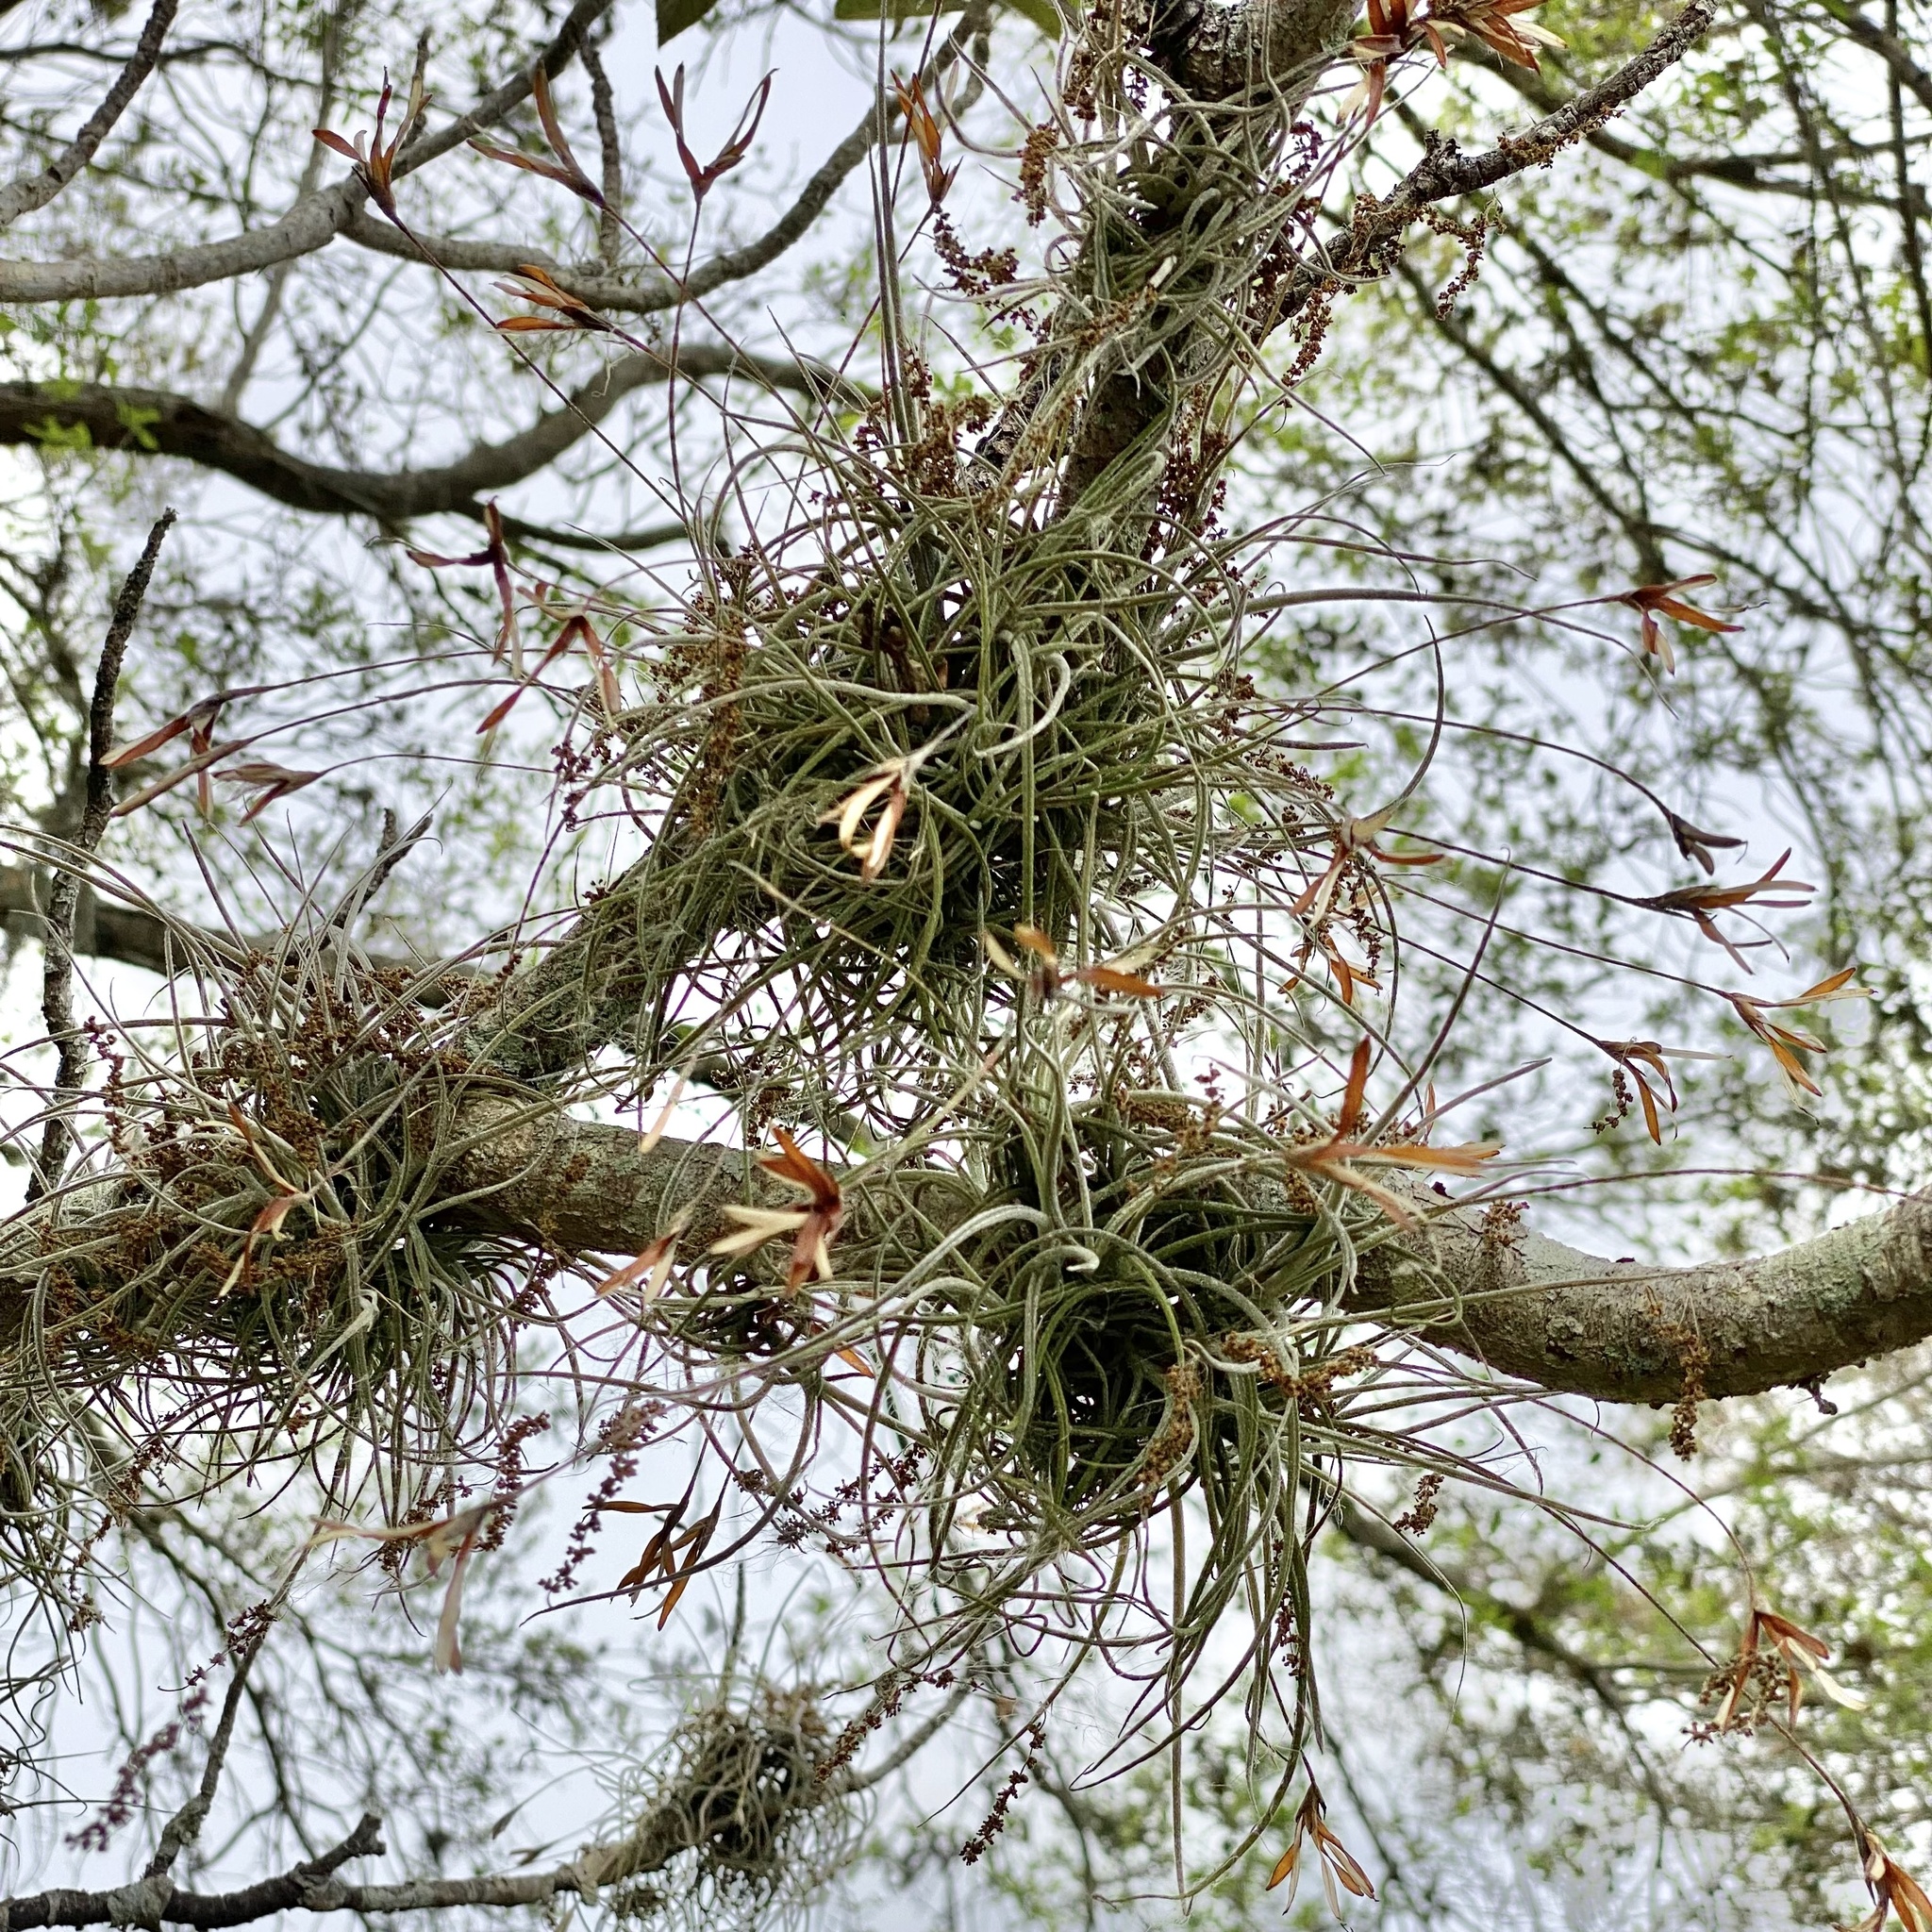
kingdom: Plantae
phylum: Tracheophyta
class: Liliopsida
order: Poales
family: Bromeliaceae
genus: Tillandsia
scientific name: Tillandsia recurvata
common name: Small ballmoss
